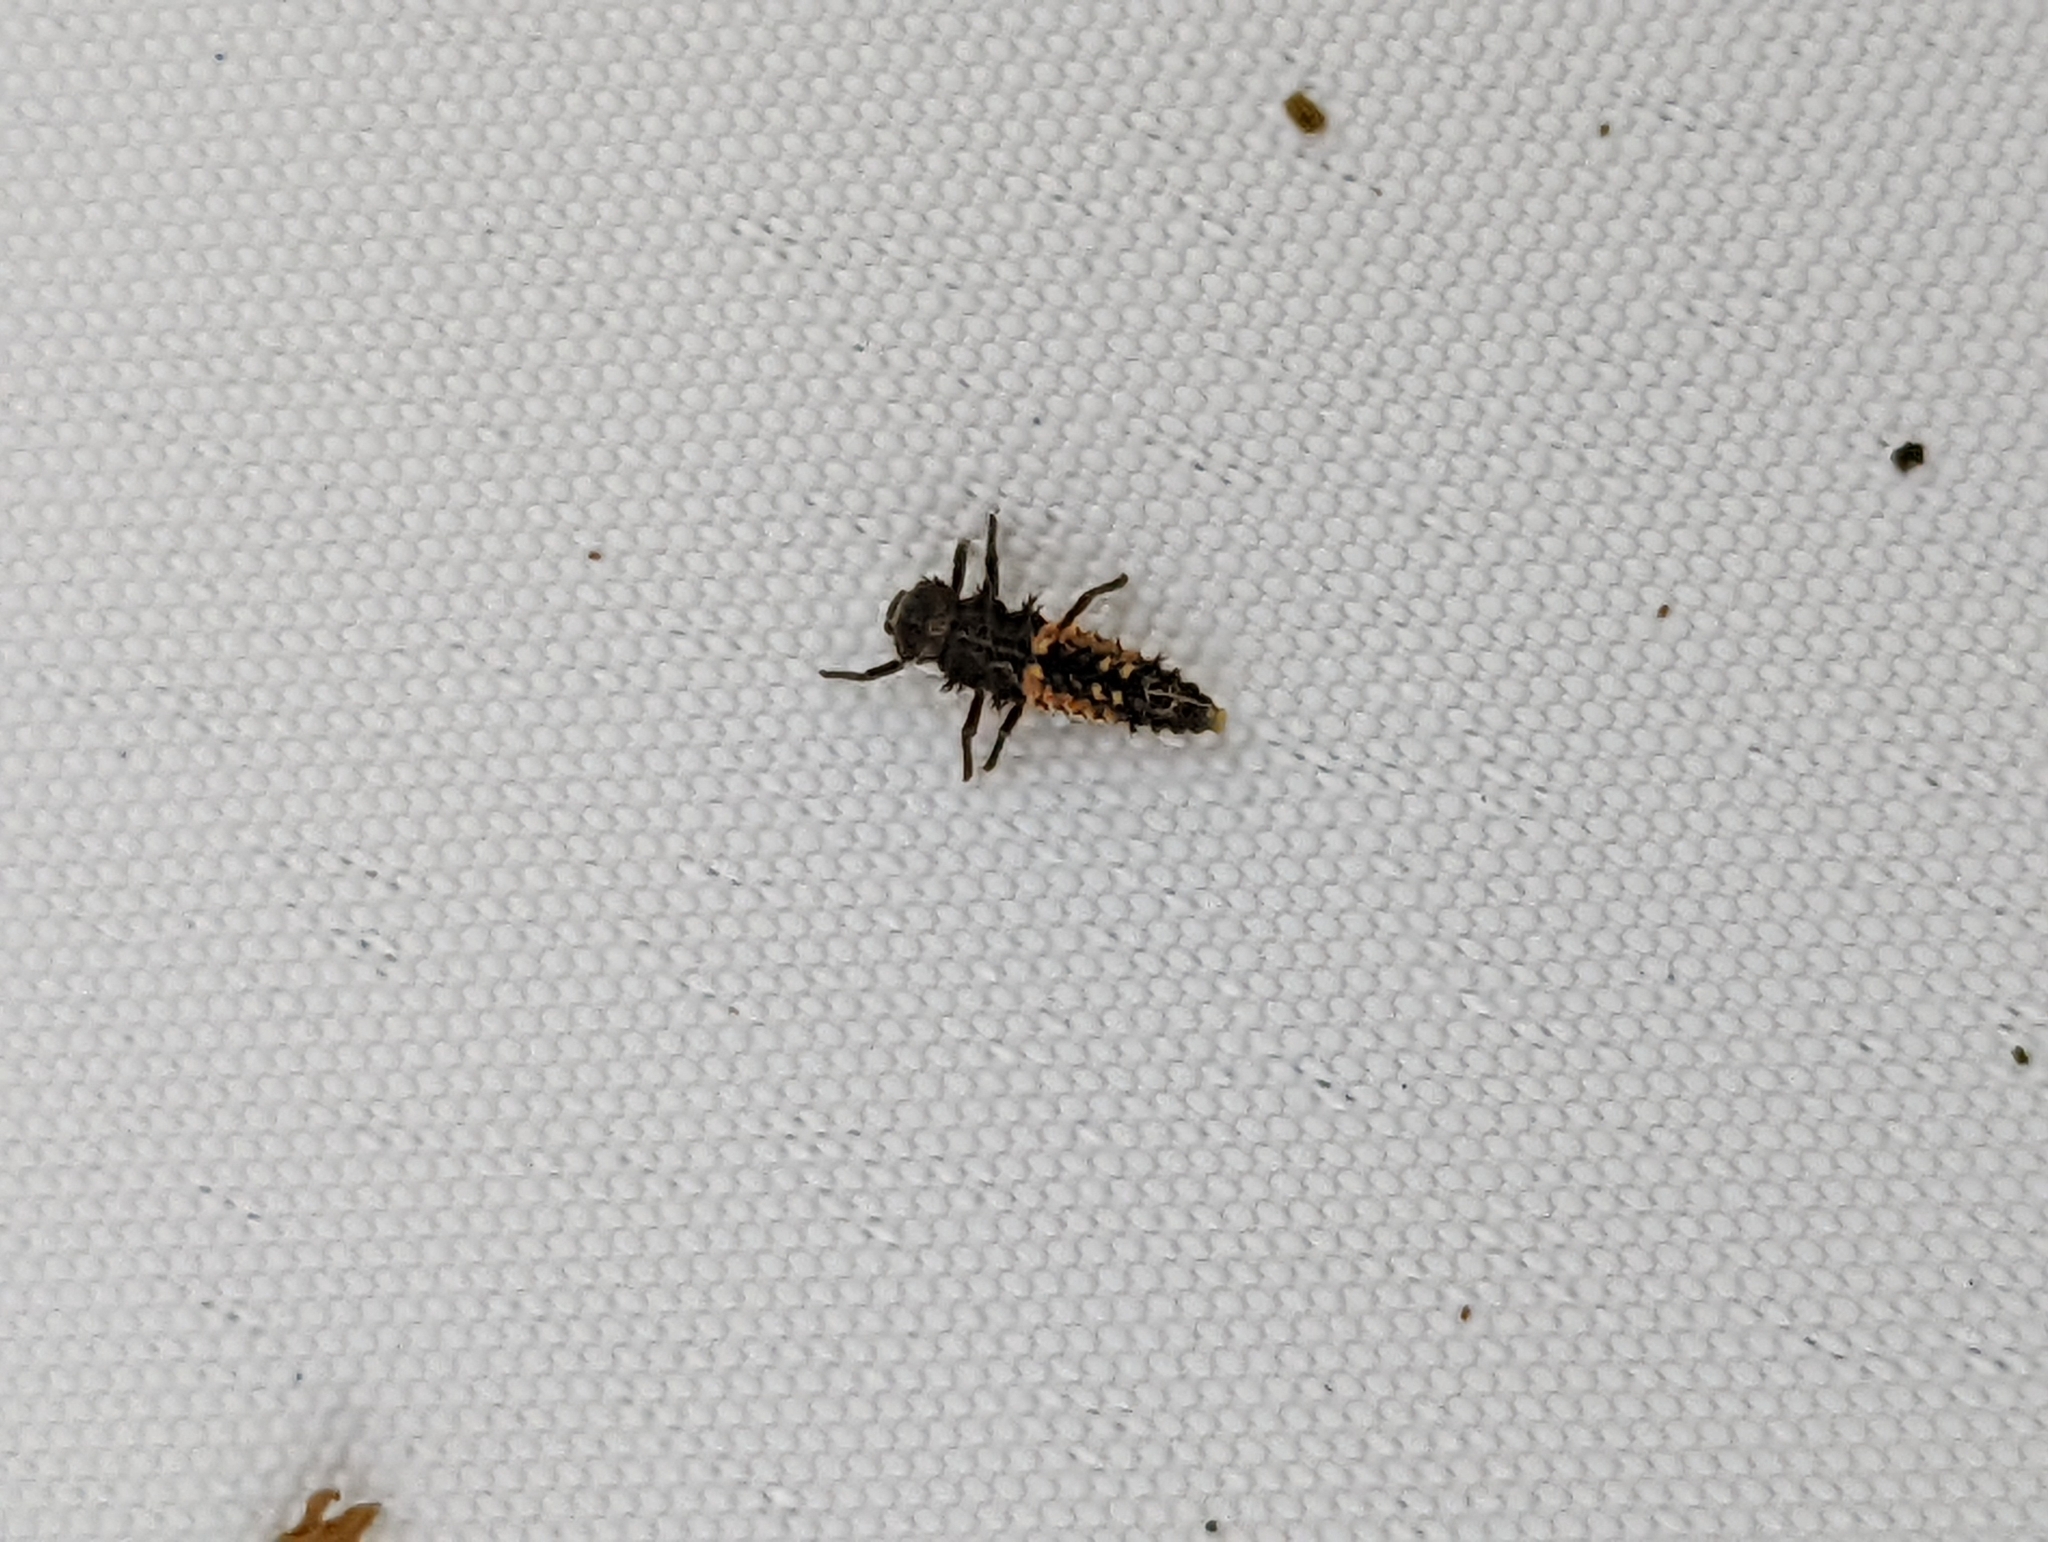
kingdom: Animalia
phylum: Arthropoda
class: Insecta
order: Coleoptera
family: Coccinellidae
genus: Harmonia
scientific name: Harmonia axyridis
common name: Harlequin ladybird
